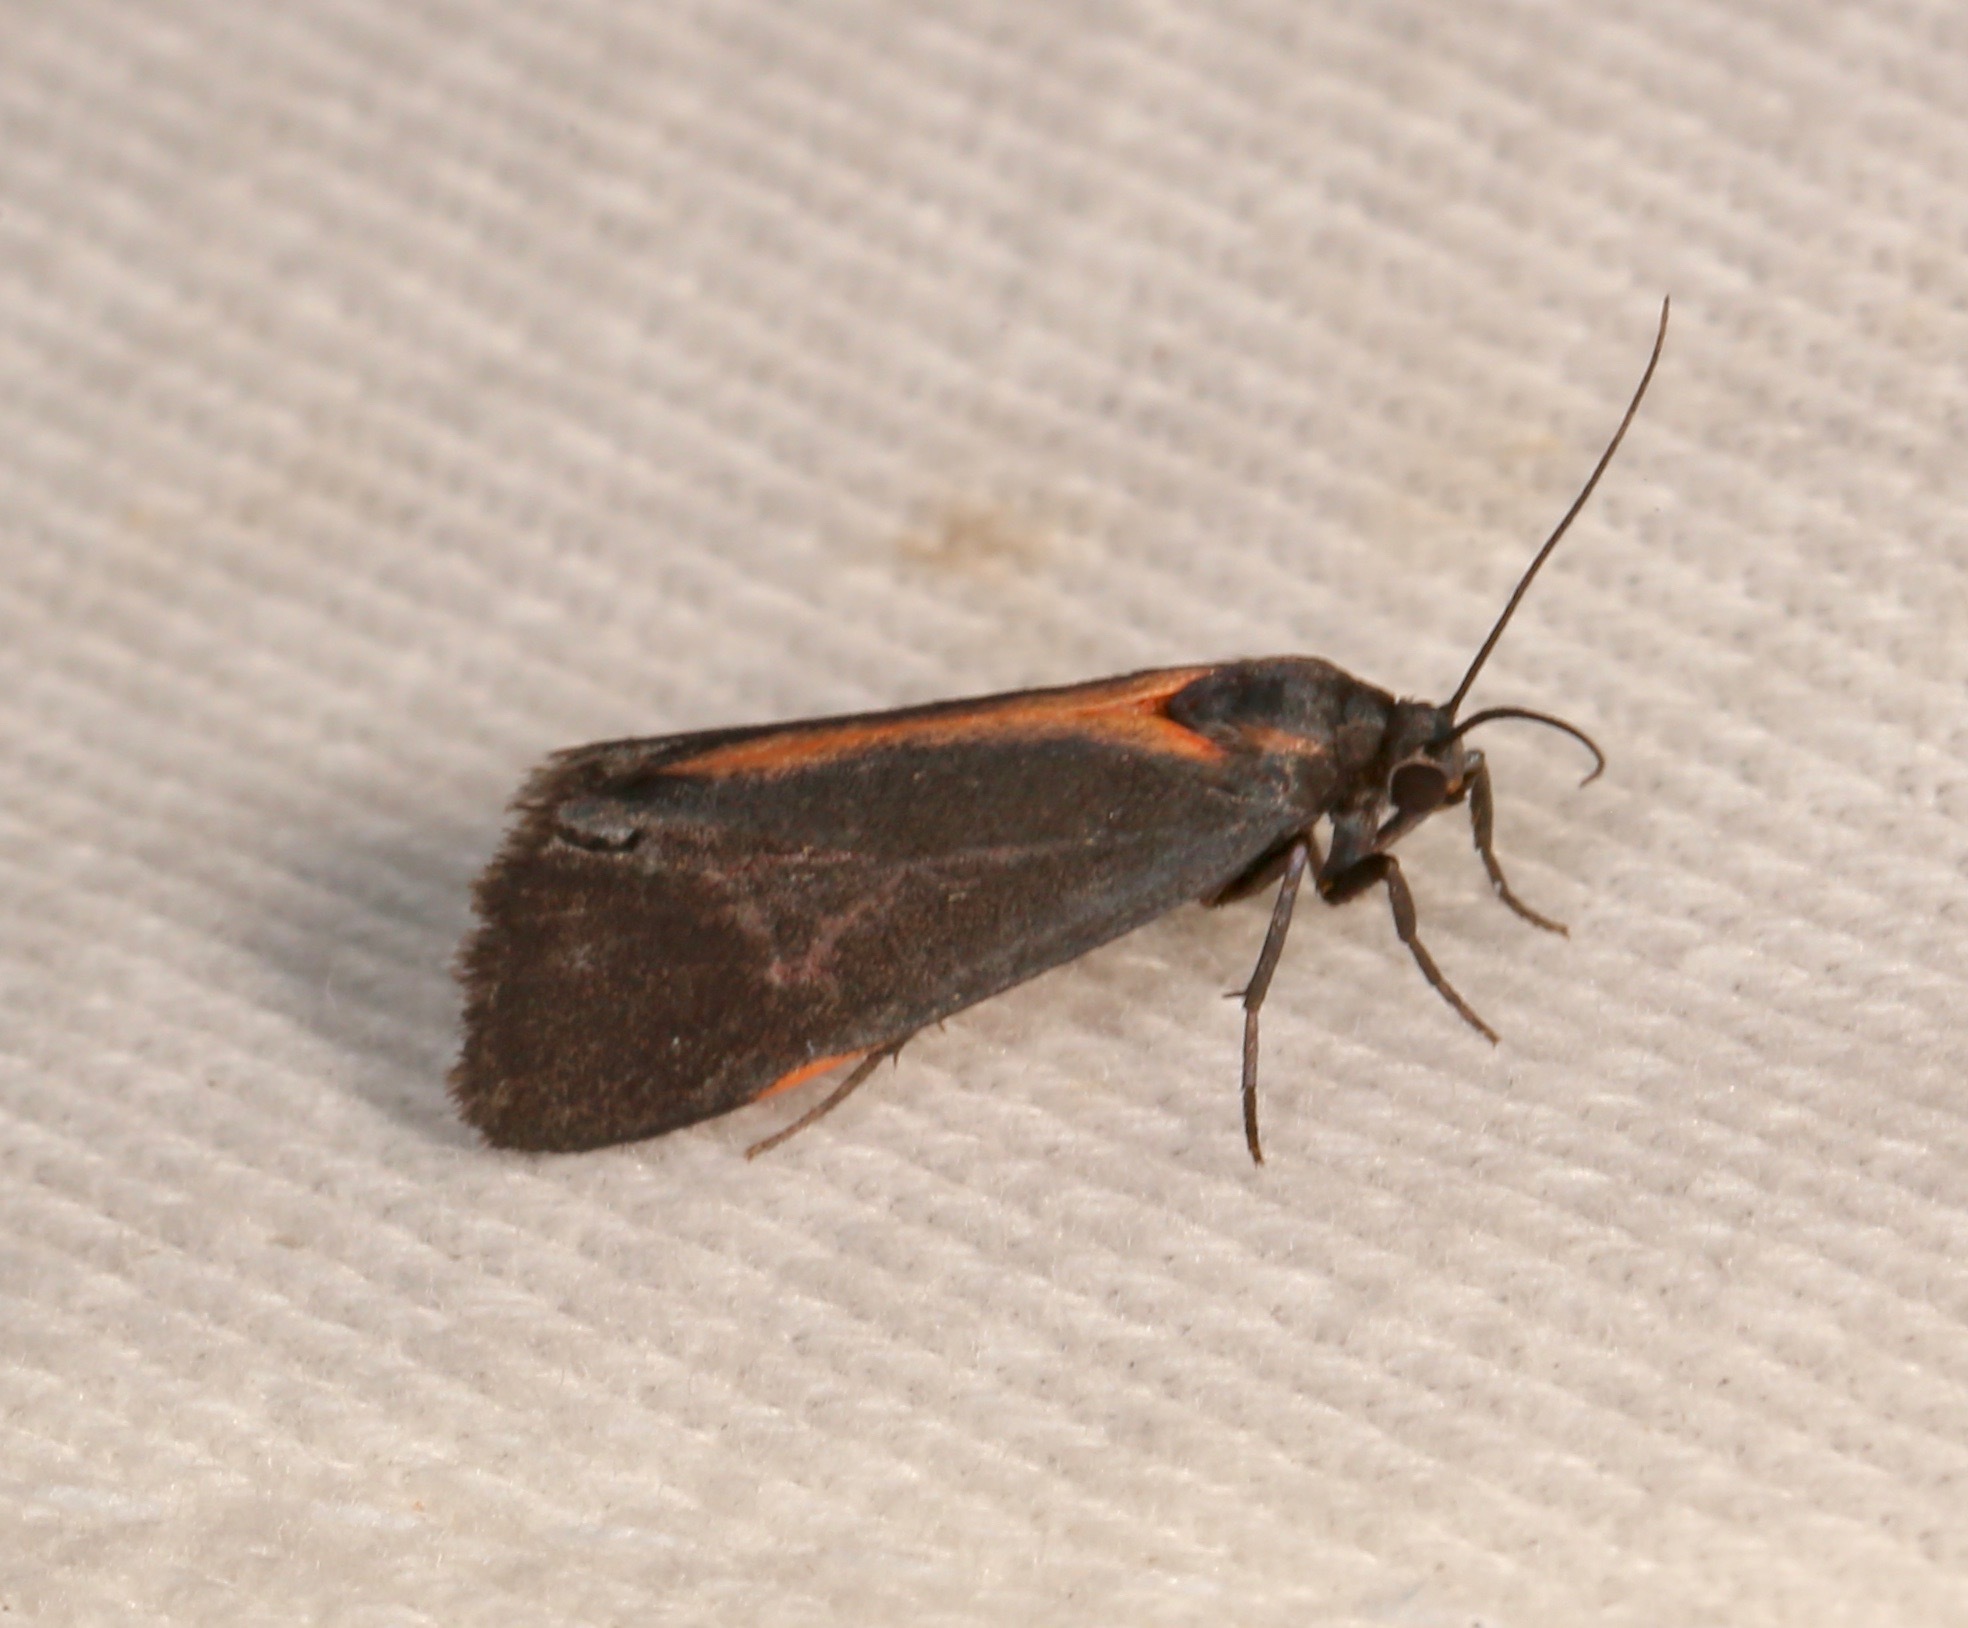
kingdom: Animalia
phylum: Arthropoda
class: Insecta
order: Lepidoptera
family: Erebidae
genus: Cisthene
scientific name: Cisthene juanita
